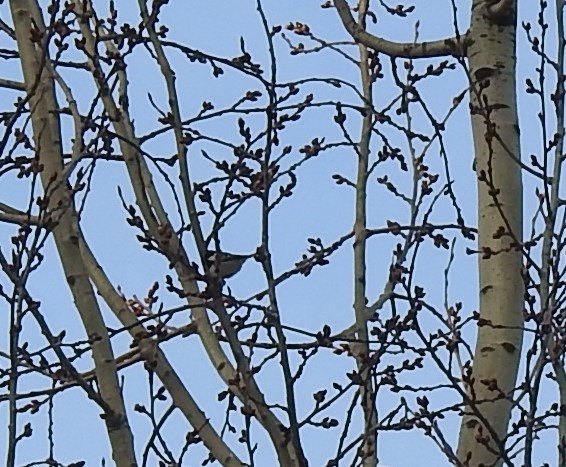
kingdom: Animalia
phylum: Chordata
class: Aves
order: Passeriformes
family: Paridae
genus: Periparus
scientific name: Periparus ater
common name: Coal tit
